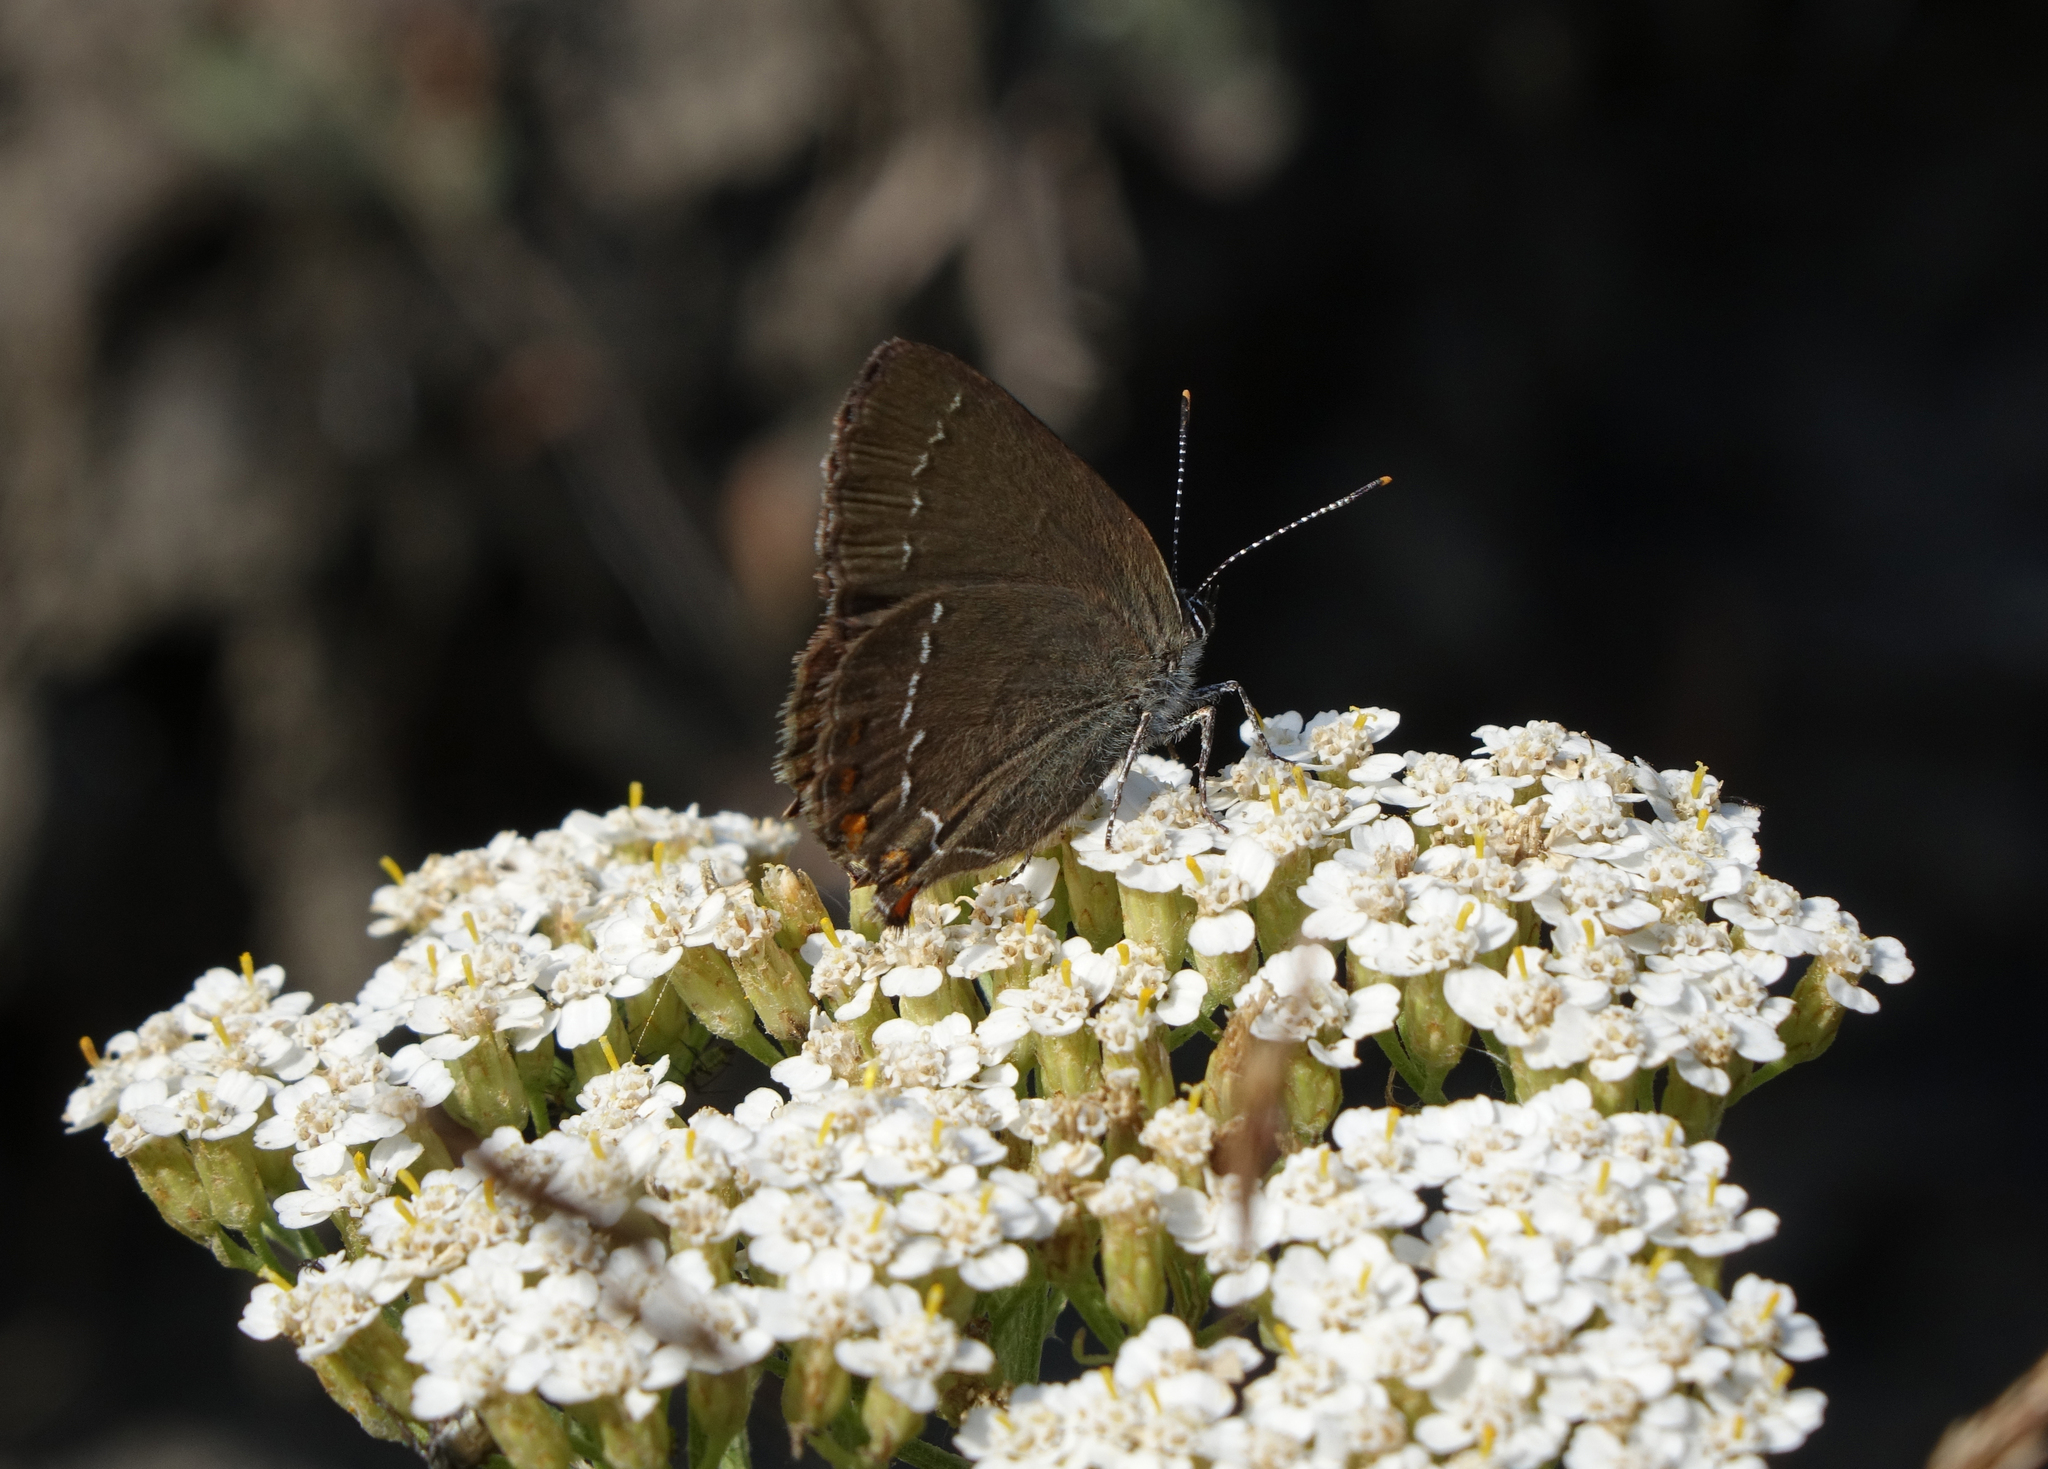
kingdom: Animalia
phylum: Arthropoda
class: Insecta
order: Lepidoptera
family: Lycaenidae
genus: Nordmannia
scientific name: Nordmannia ilicis
